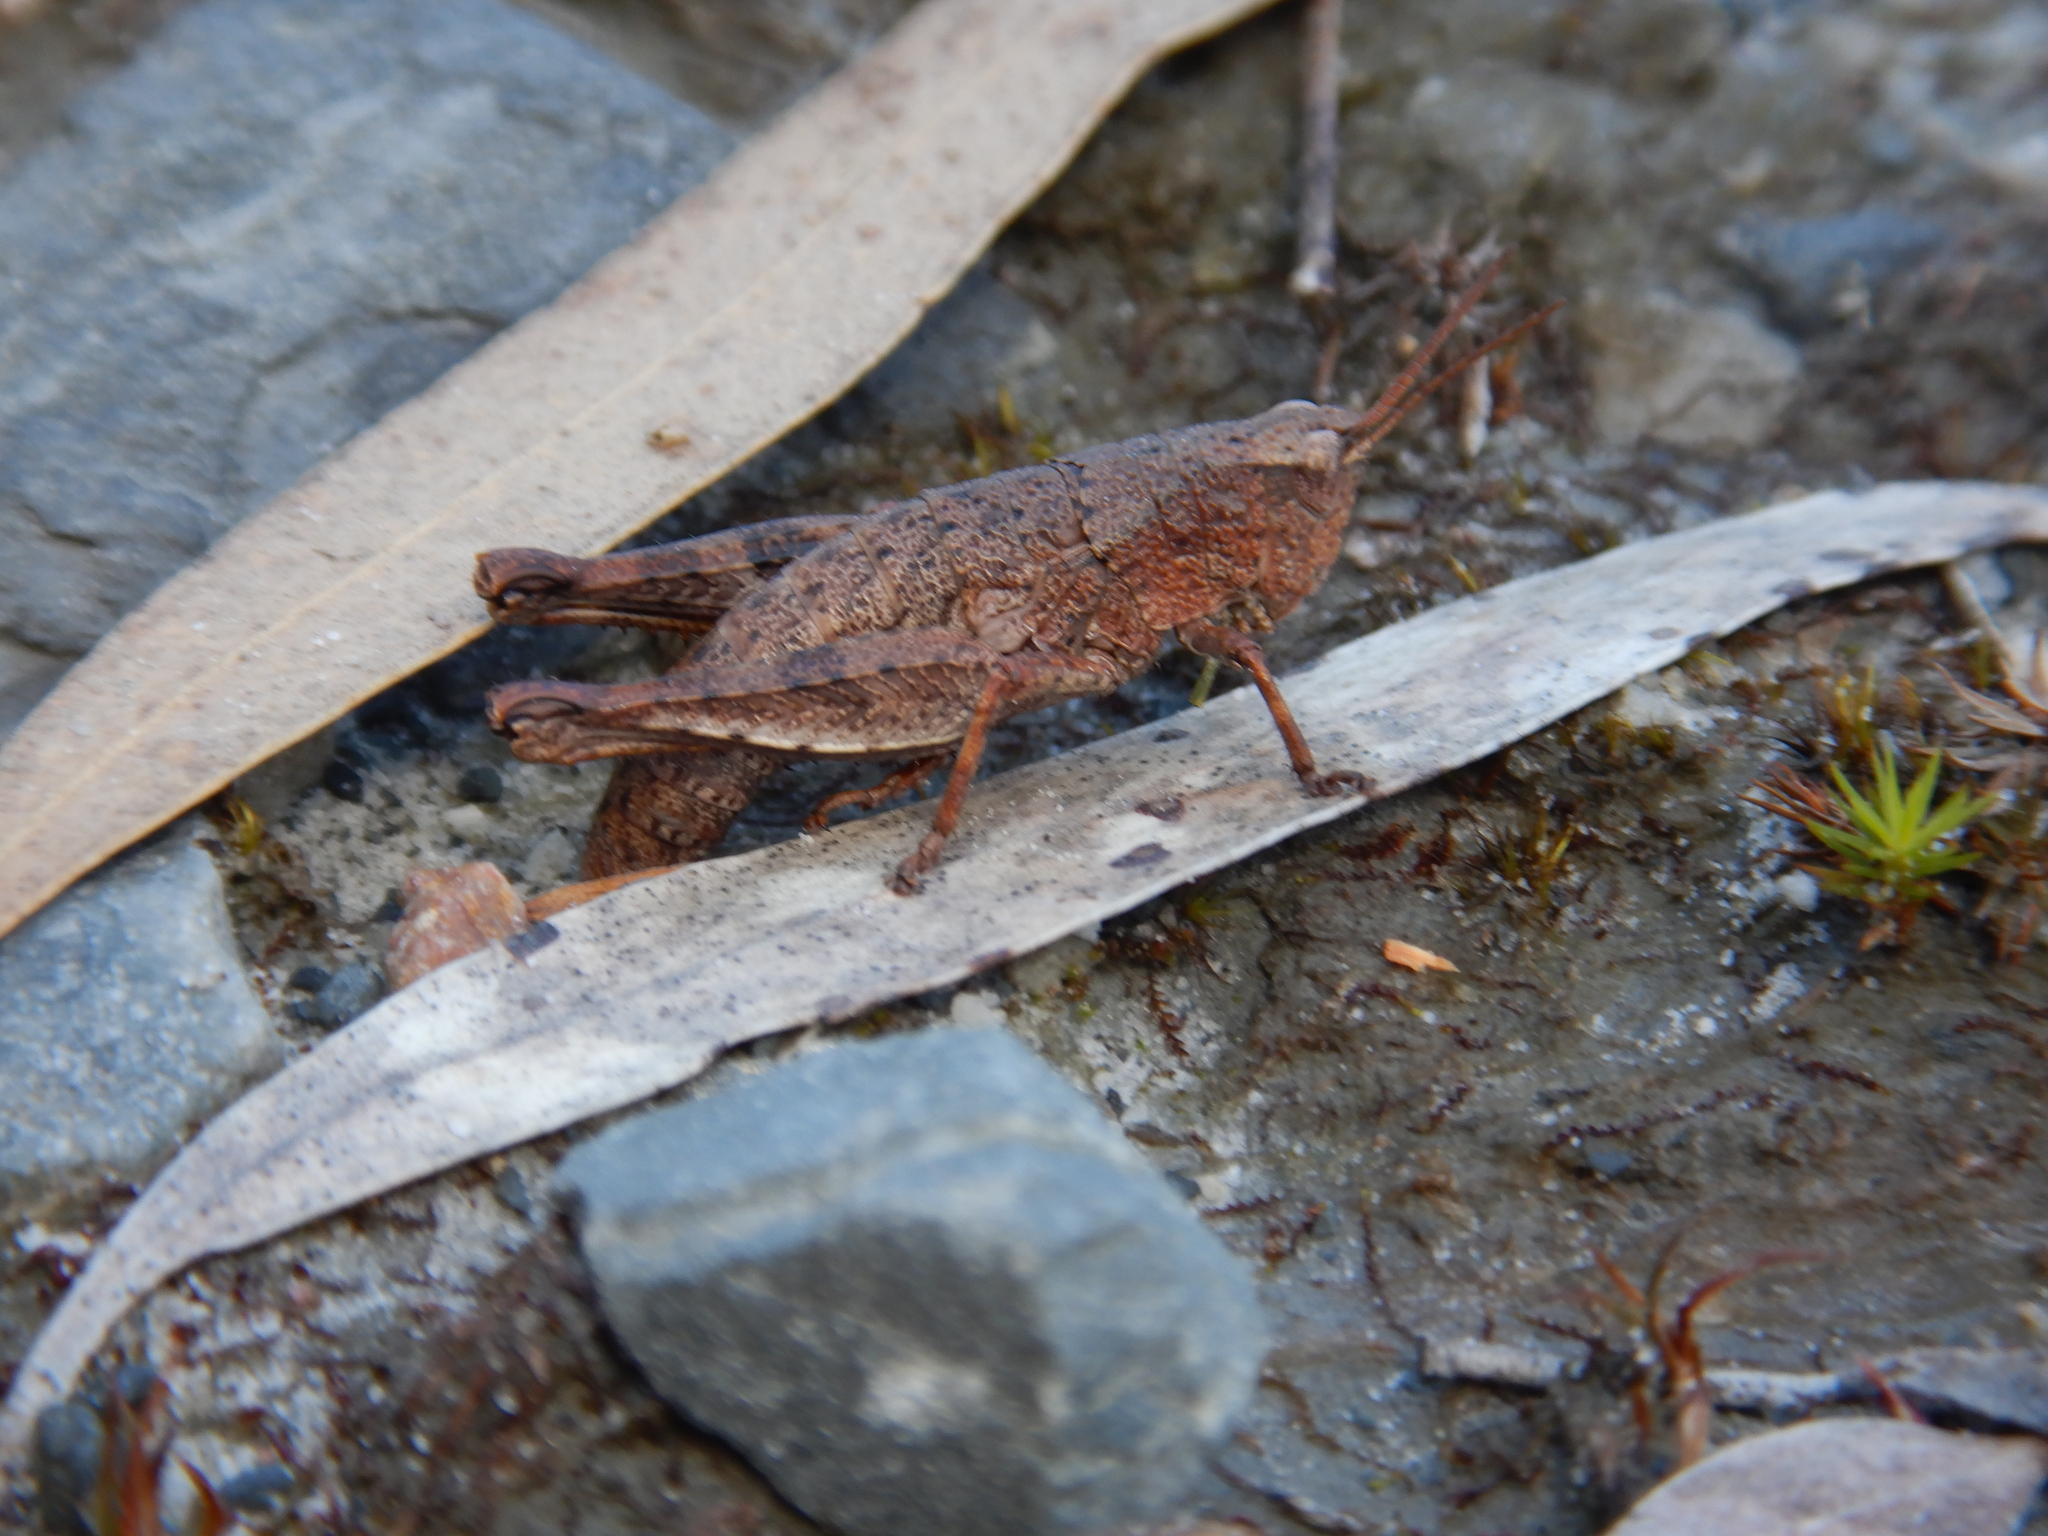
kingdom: Animalia
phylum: Arthropoda
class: Insecta
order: Orthoptera
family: Acrididae
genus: Tasmaniacris
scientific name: Tasmaniacris tasmaniensis
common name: Tasmanian grasshopper
